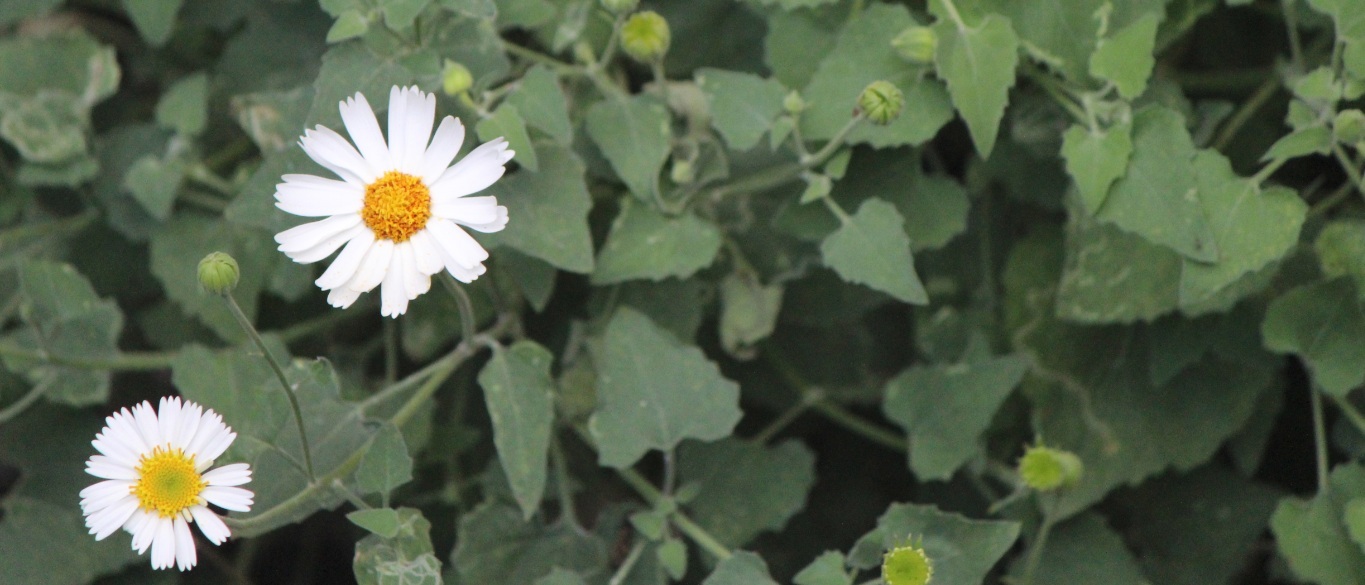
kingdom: Plantae
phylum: Tracheophyta
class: Magnoliopsida
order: Asterales
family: Asteraceae
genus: Eutetras
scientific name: Eutetras pringlei
